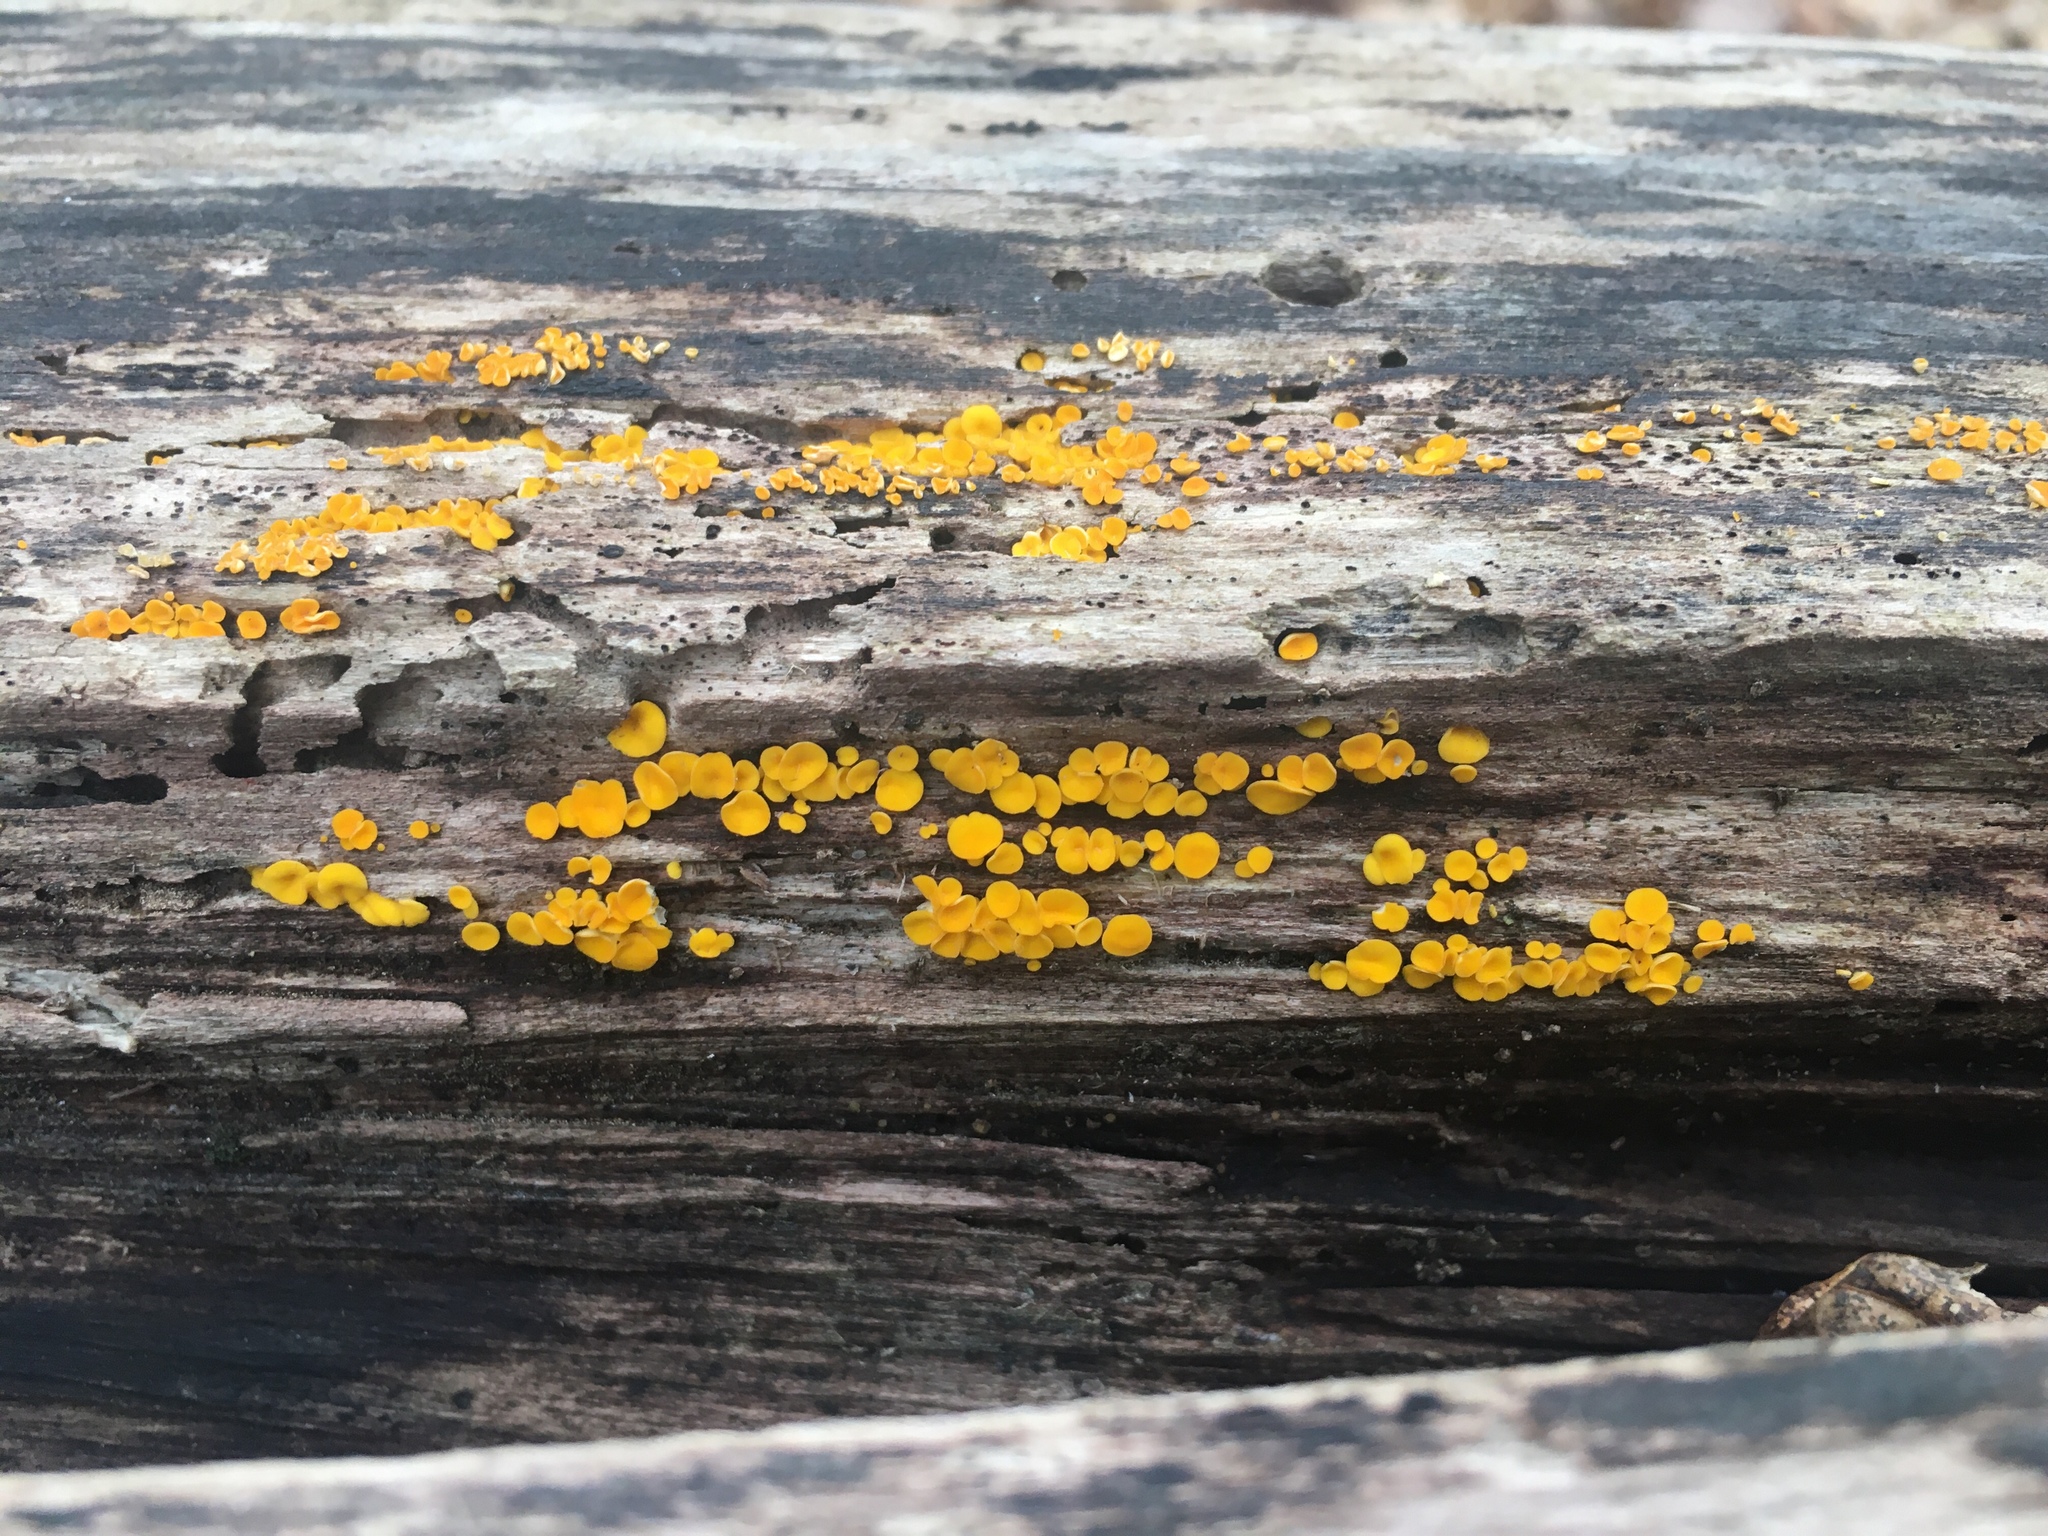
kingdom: Fungi
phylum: Ascomycota
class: Leotiomycetes
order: Helotiales
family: Pezizellaceae
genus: Calycina
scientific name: Calycina citrina
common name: Yellow fairy cups
